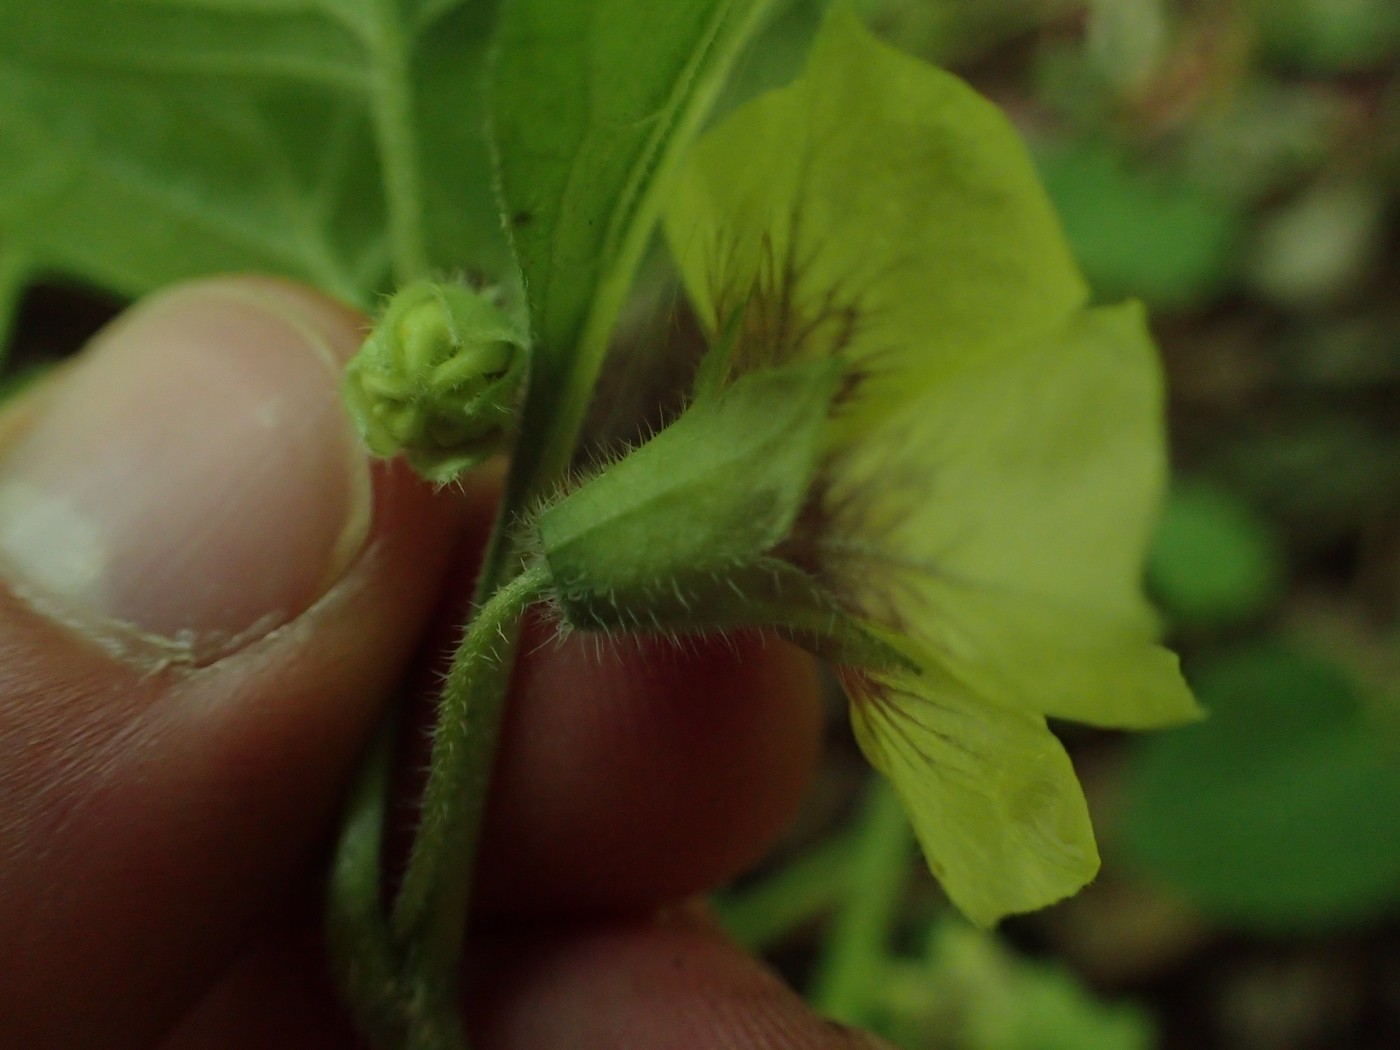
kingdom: Plantae
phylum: Tracheophyta
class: Magnoliopsida
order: Solanales
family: Solanaceae
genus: Physalis
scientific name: Physalis virginiana
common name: Virginia ground-cherry
